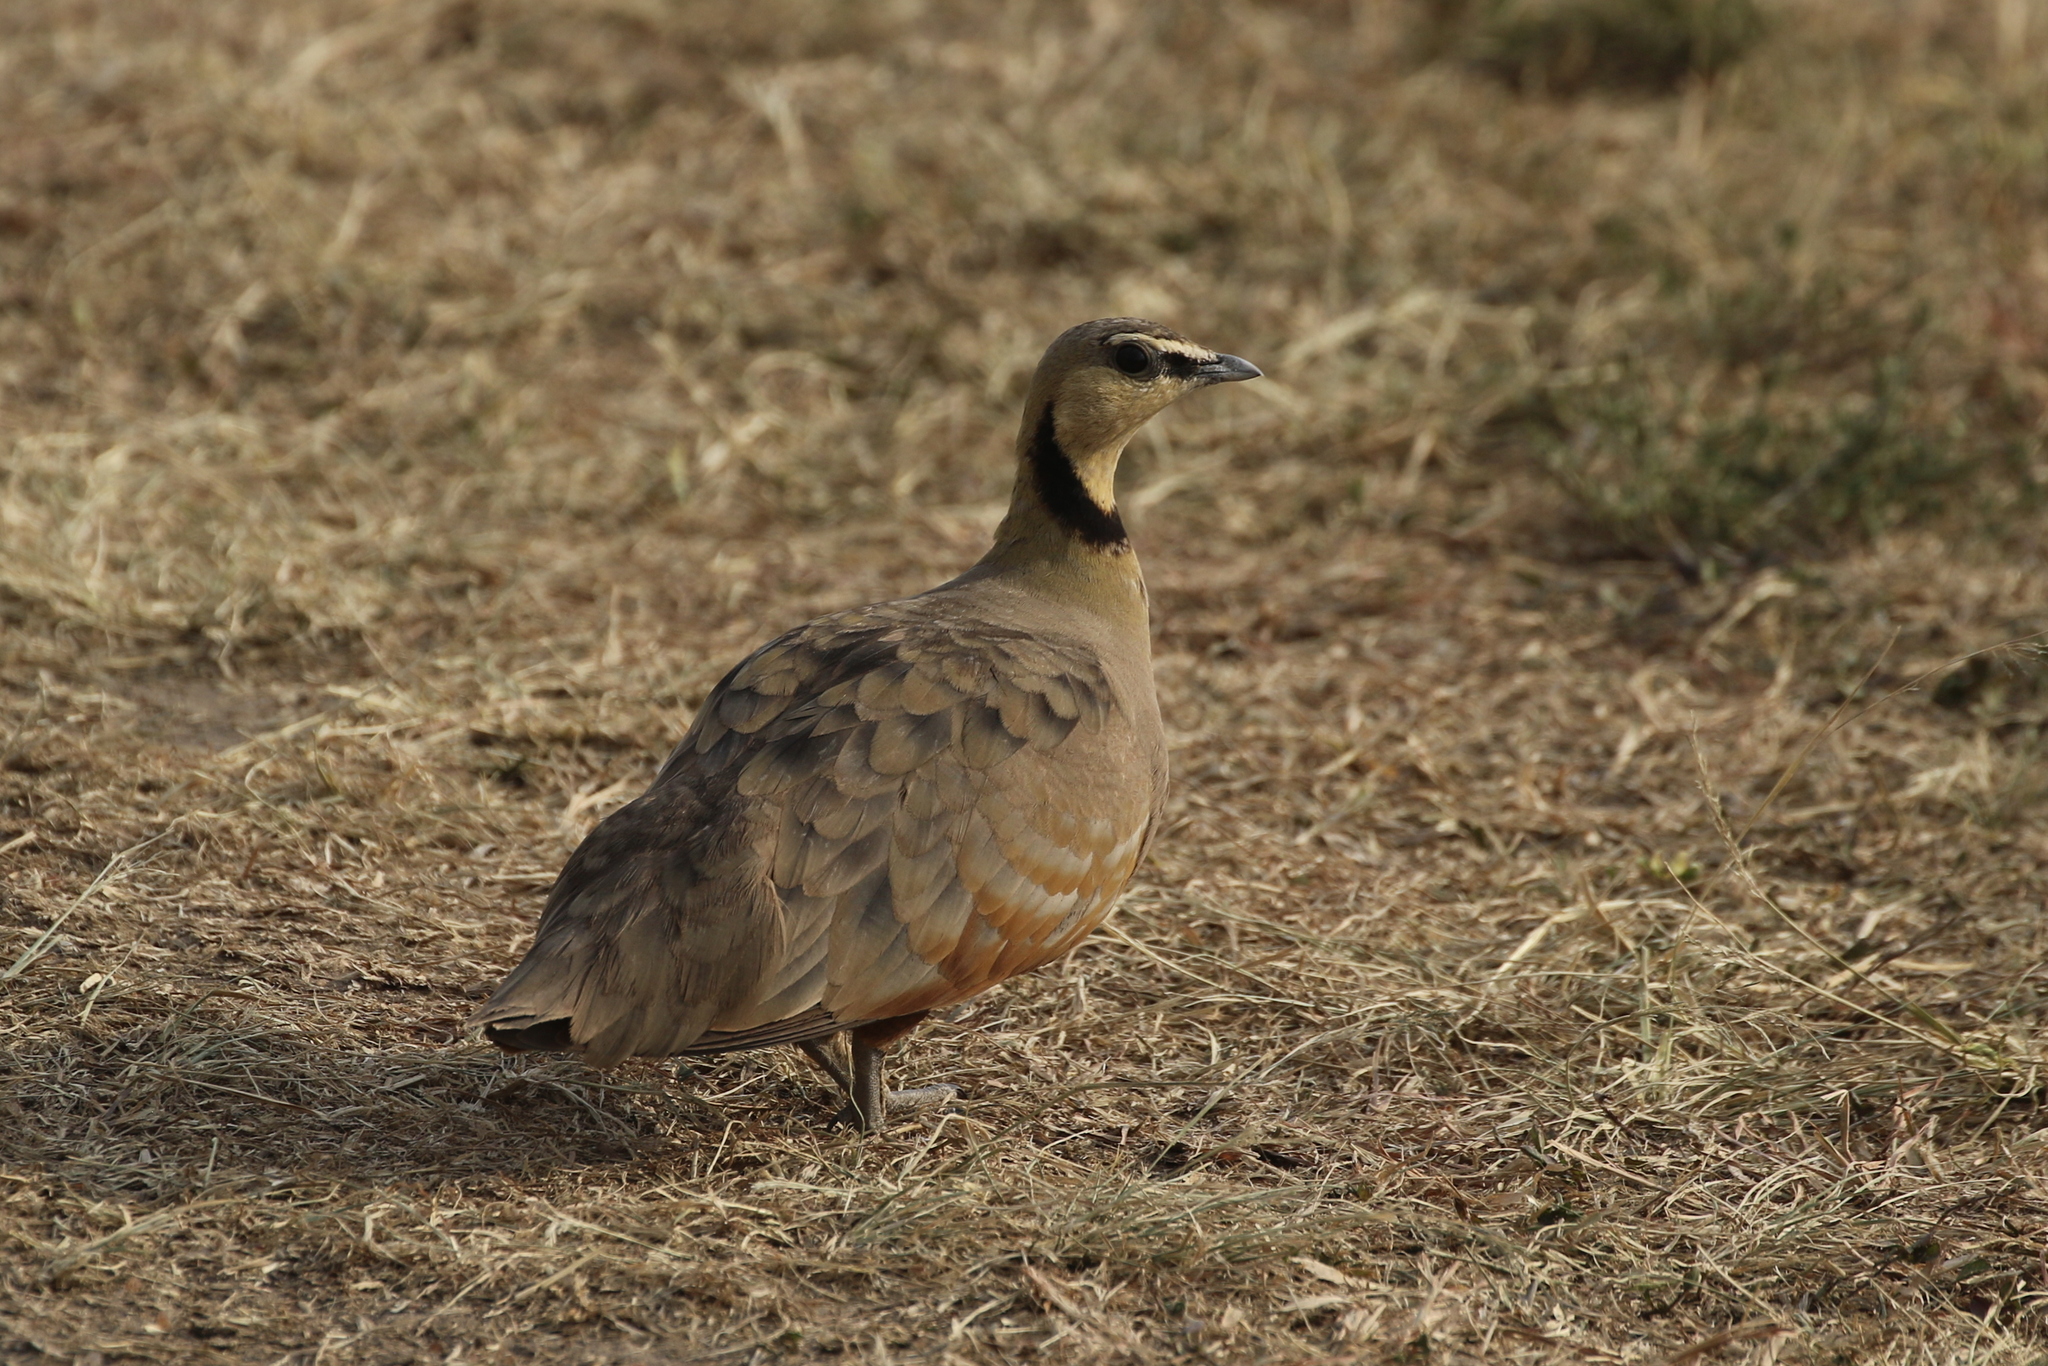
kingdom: Animalia
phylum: Chordata
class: Aves
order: Pteroclidiformes
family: Pteroclididae
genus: Pterocles
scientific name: Pterocles gutturalis
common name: Yellow-throated sandgrouse
